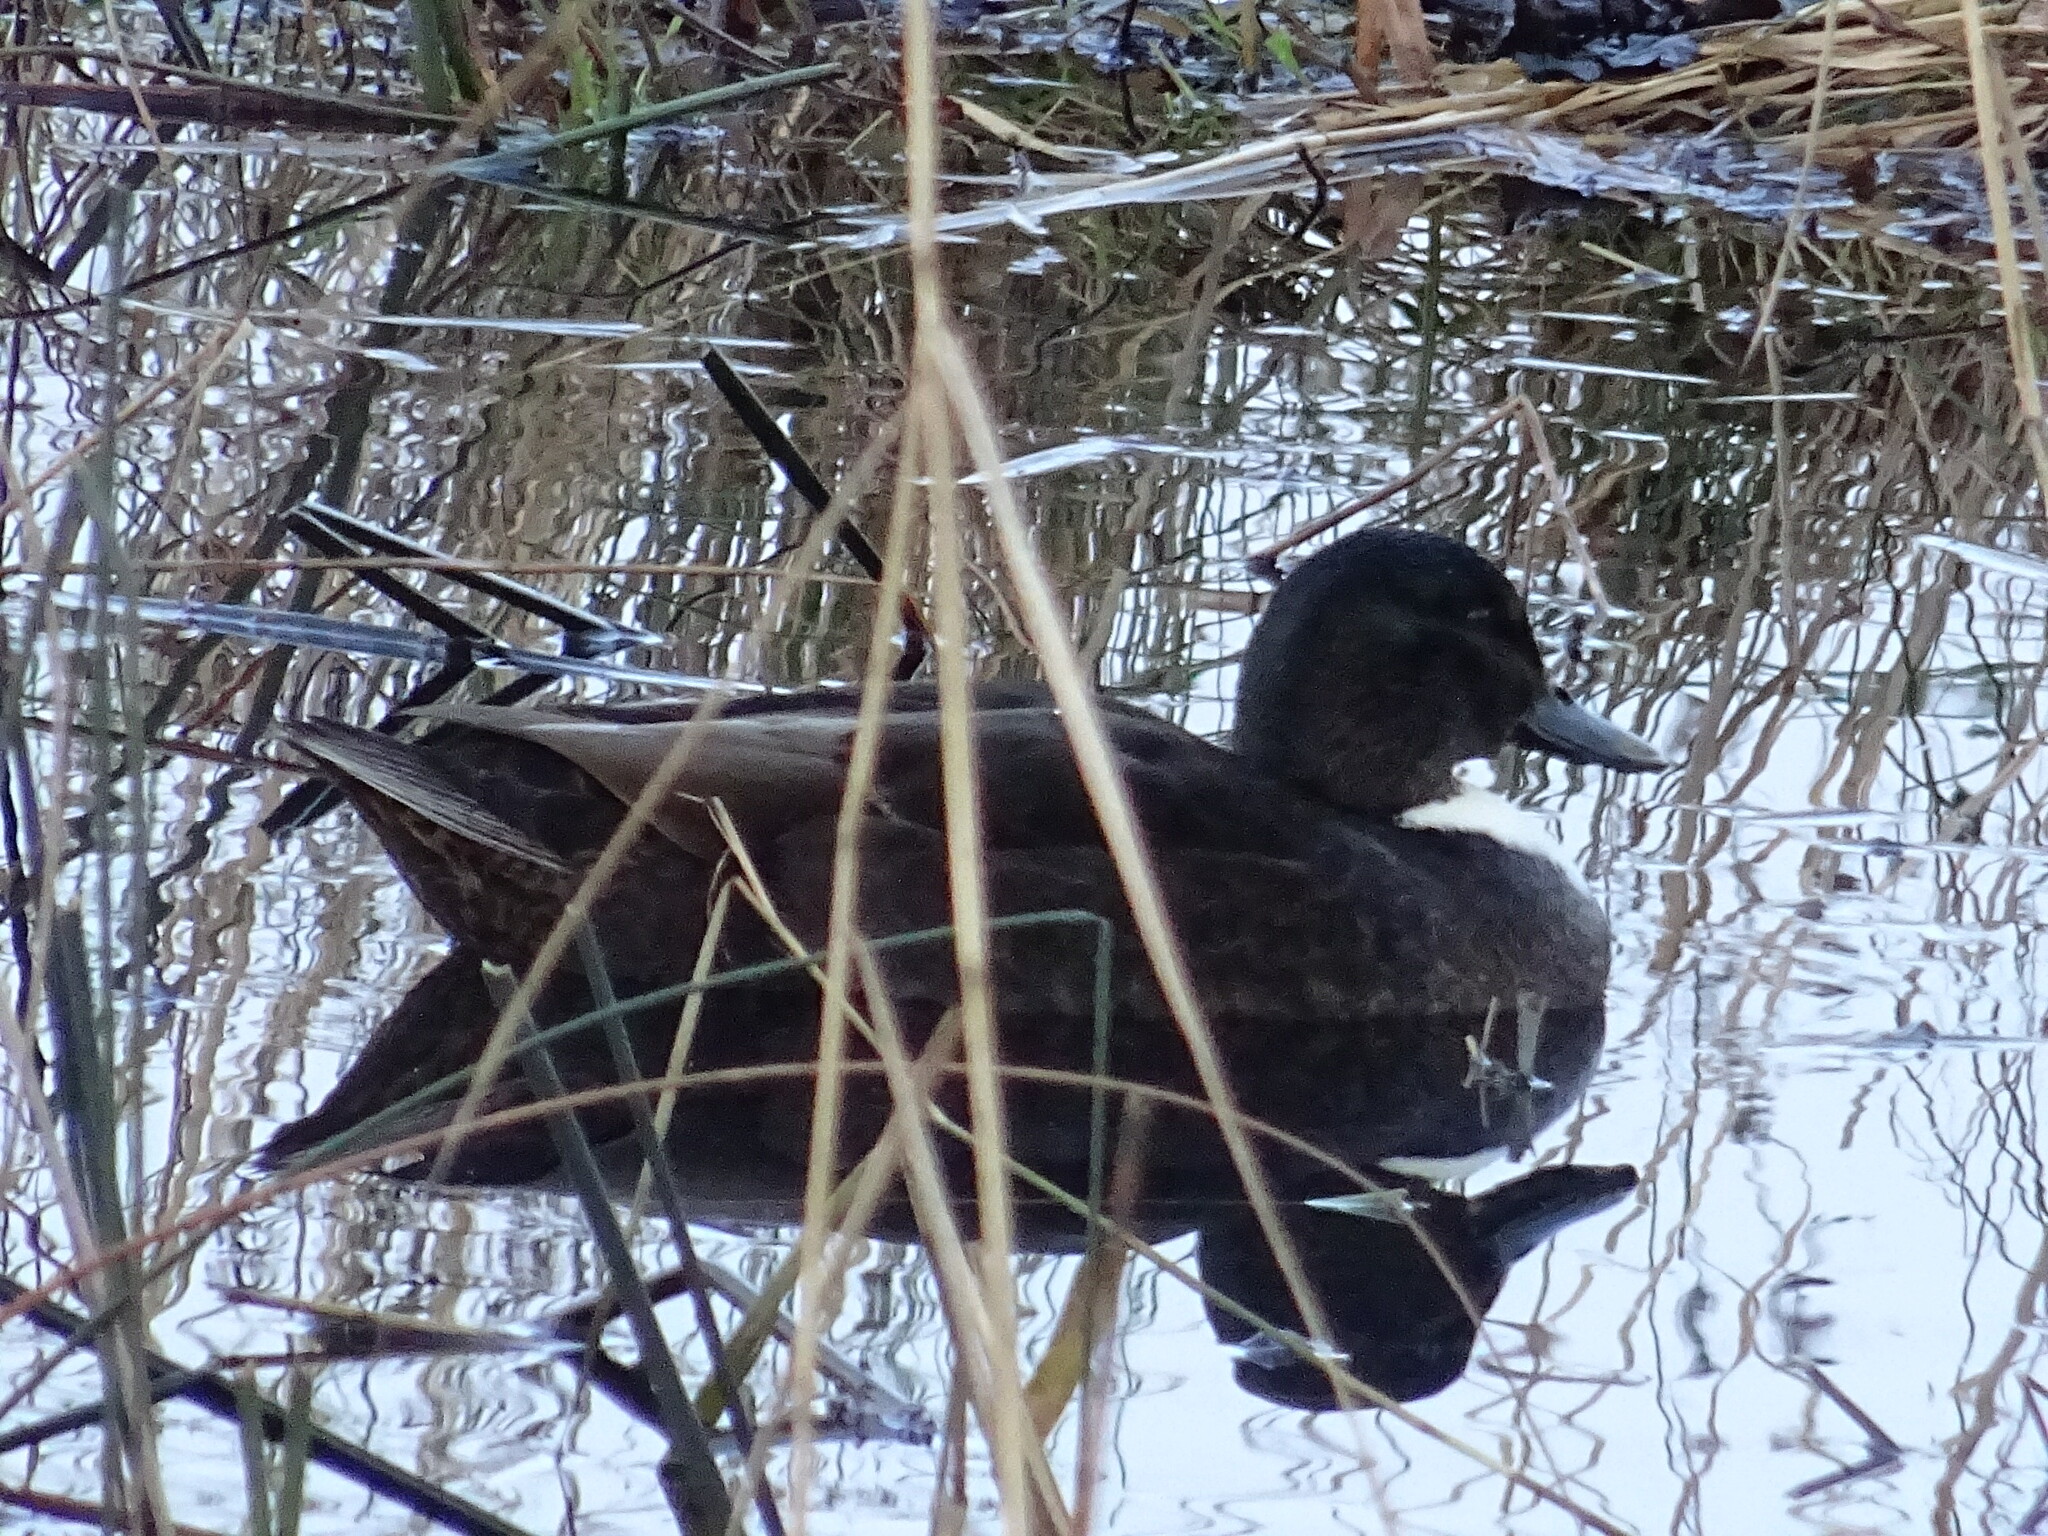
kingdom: Animalia
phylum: Chordata
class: Aves
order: Anseriformes
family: Anatidae
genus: Anas
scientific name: Anas platyrhynchos
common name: Mallard
